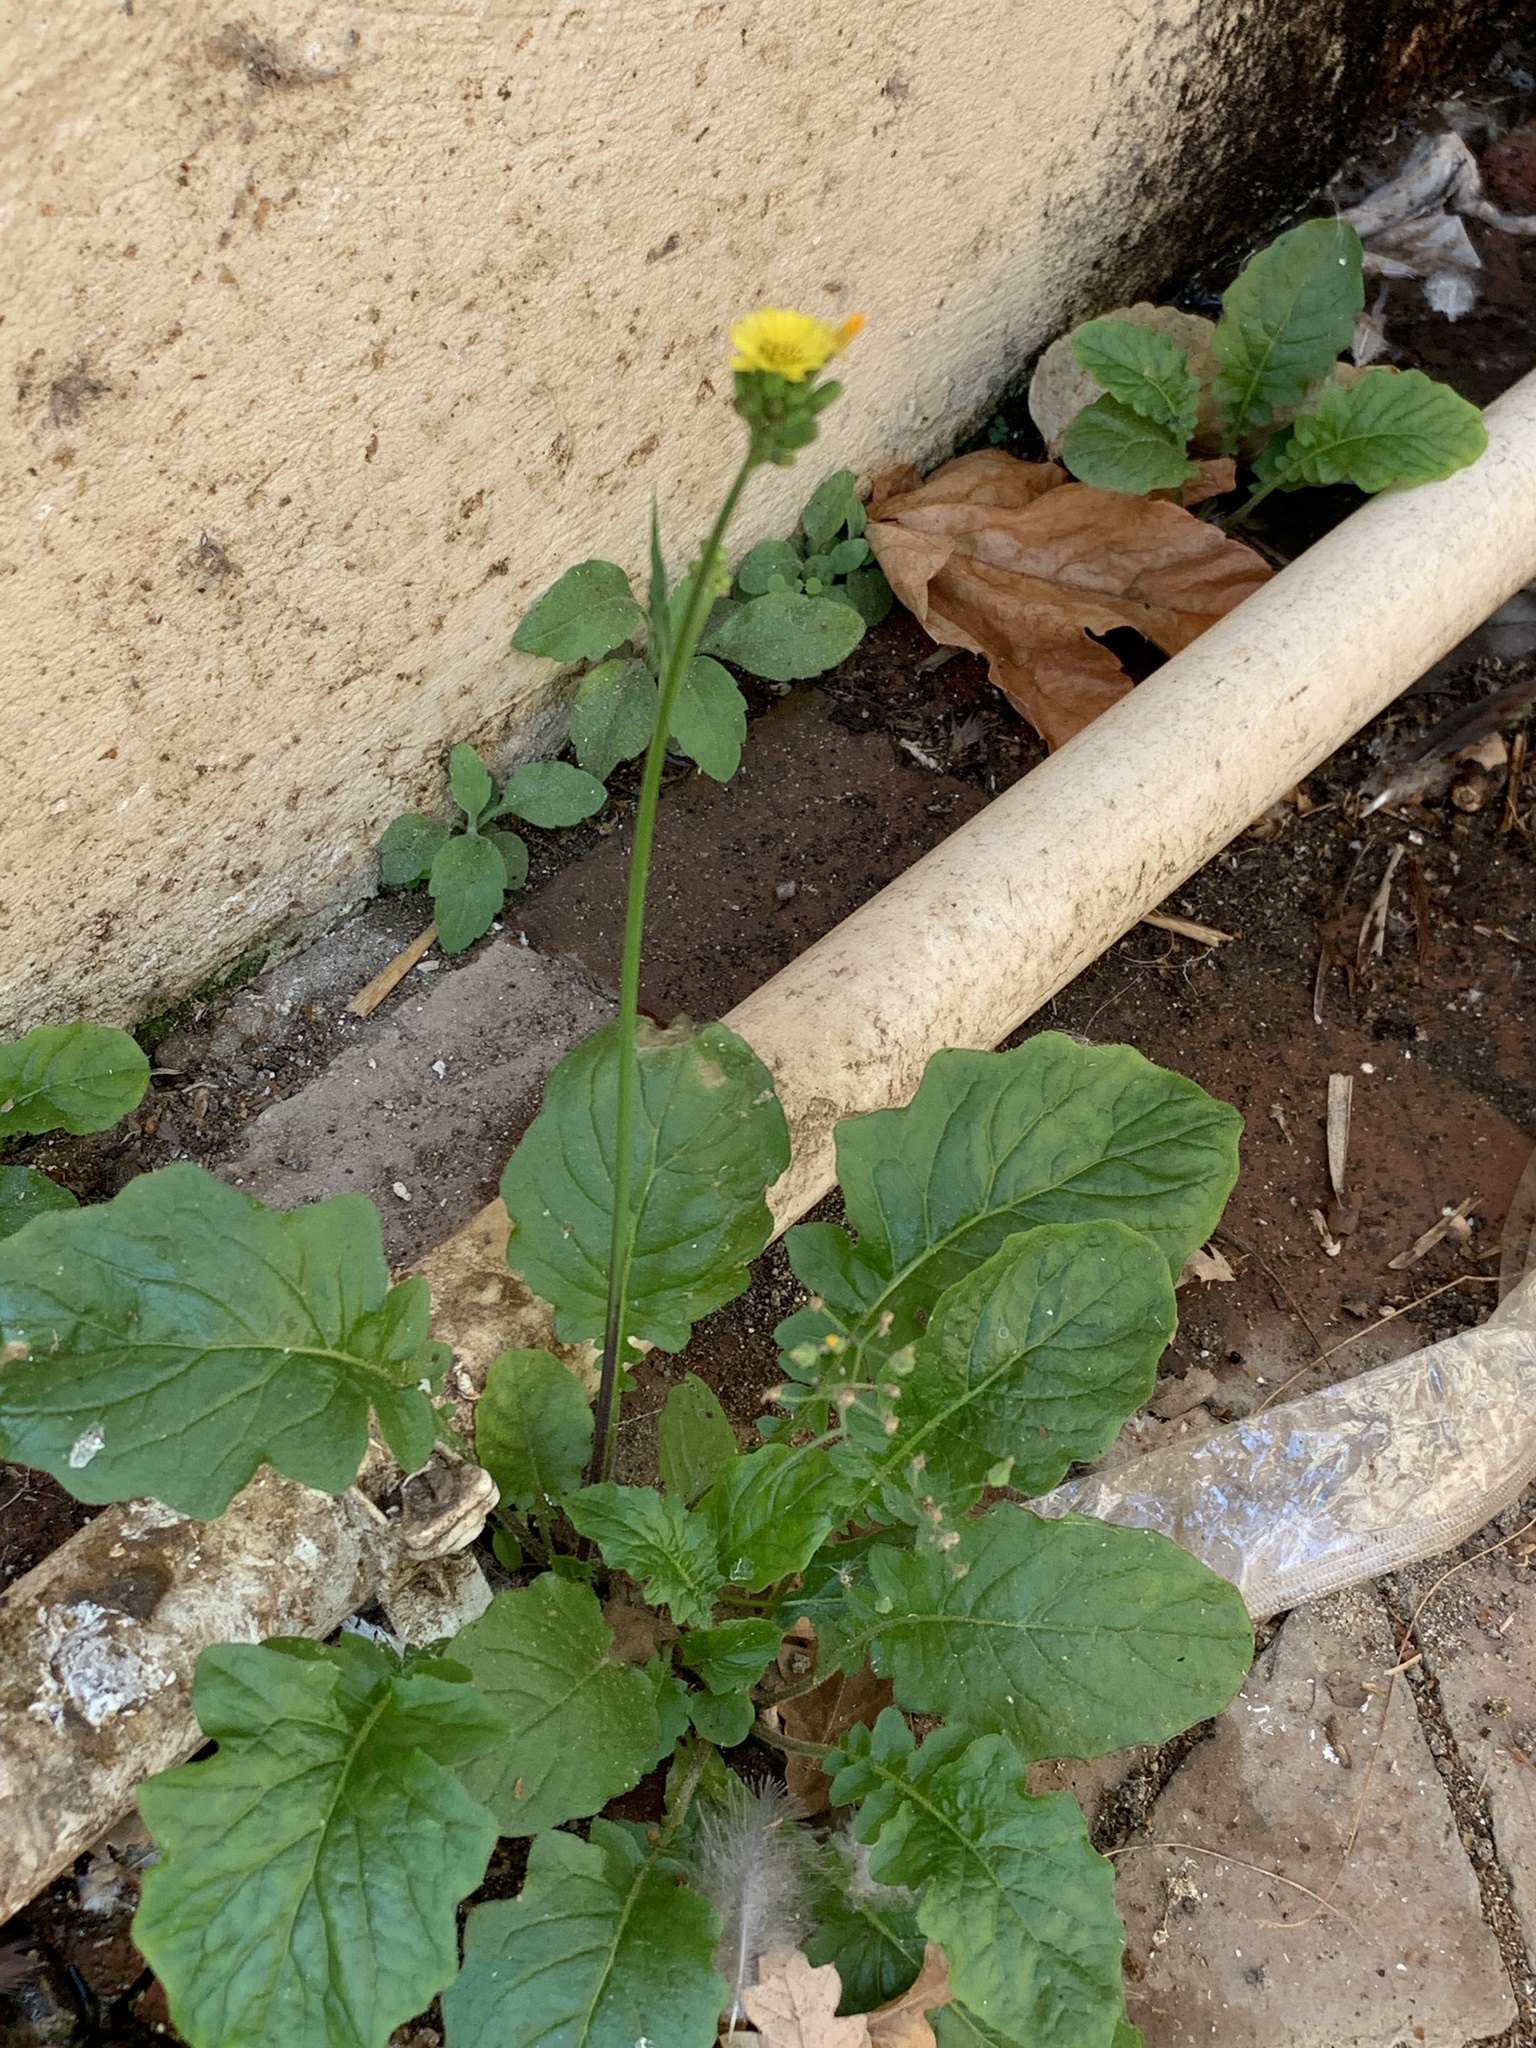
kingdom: Plantae
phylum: Tracheophyta
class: Magnoliopsida
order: Asterales
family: Asteraceae
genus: Youngia
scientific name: Youngia japonica
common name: Oriental false hawksbeard
